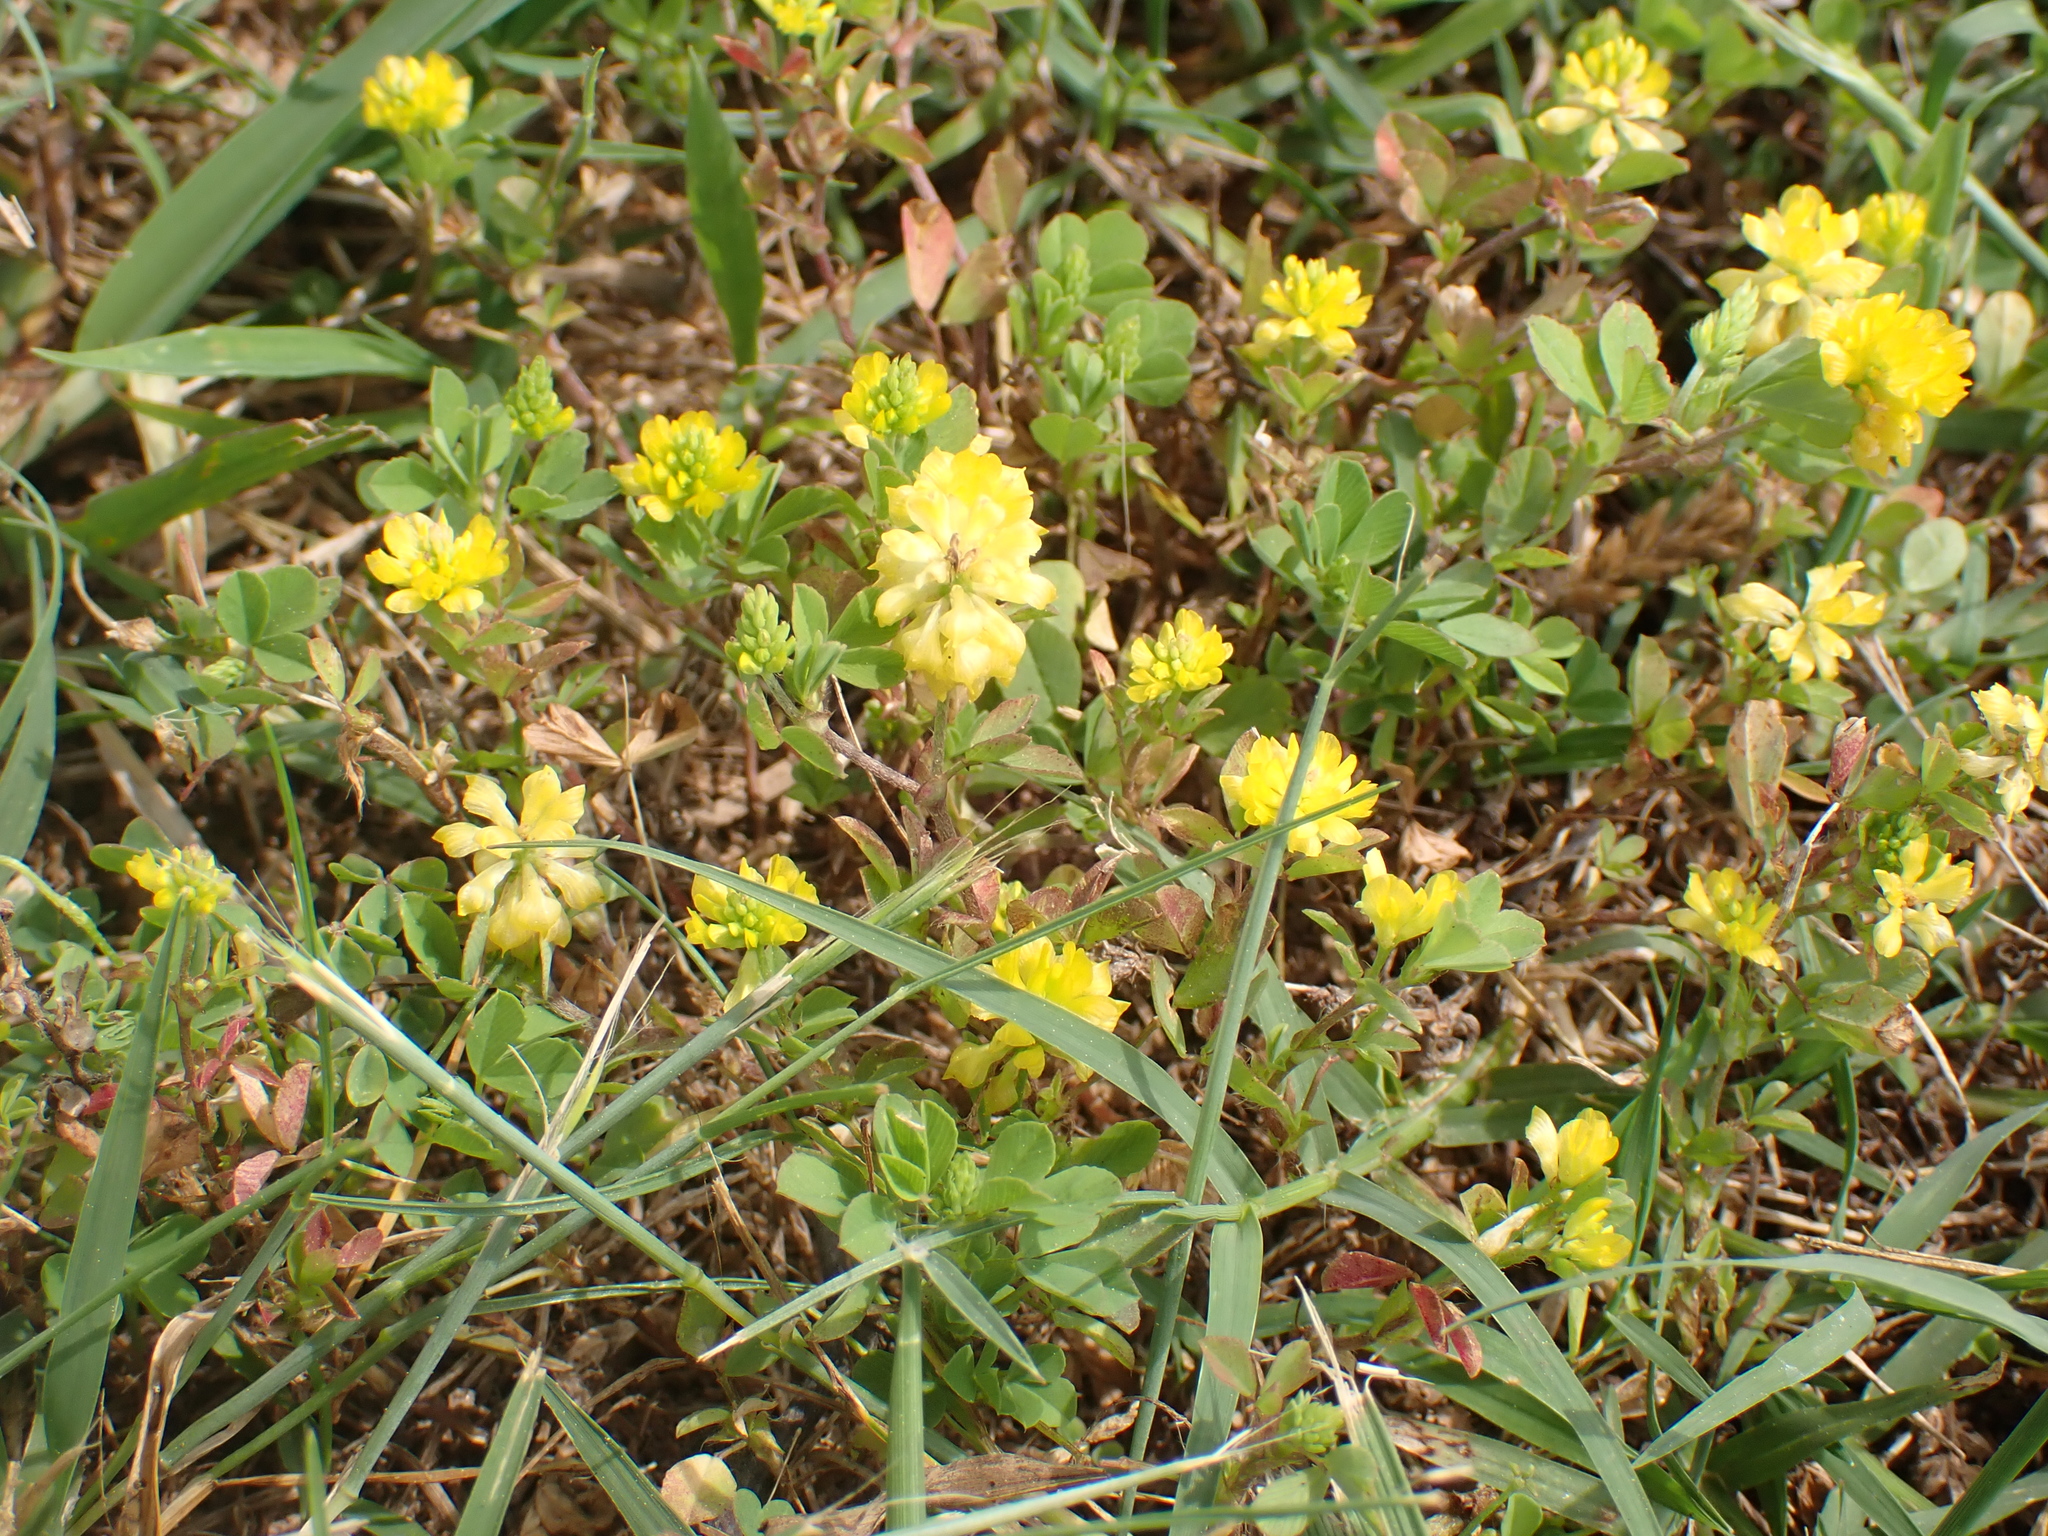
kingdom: Plantae
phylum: Tracheophyta
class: Magnoliopsida
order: Fabales
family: Fabaceae
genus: Trifolium
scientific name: Trifolium campestre
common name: Field clover
